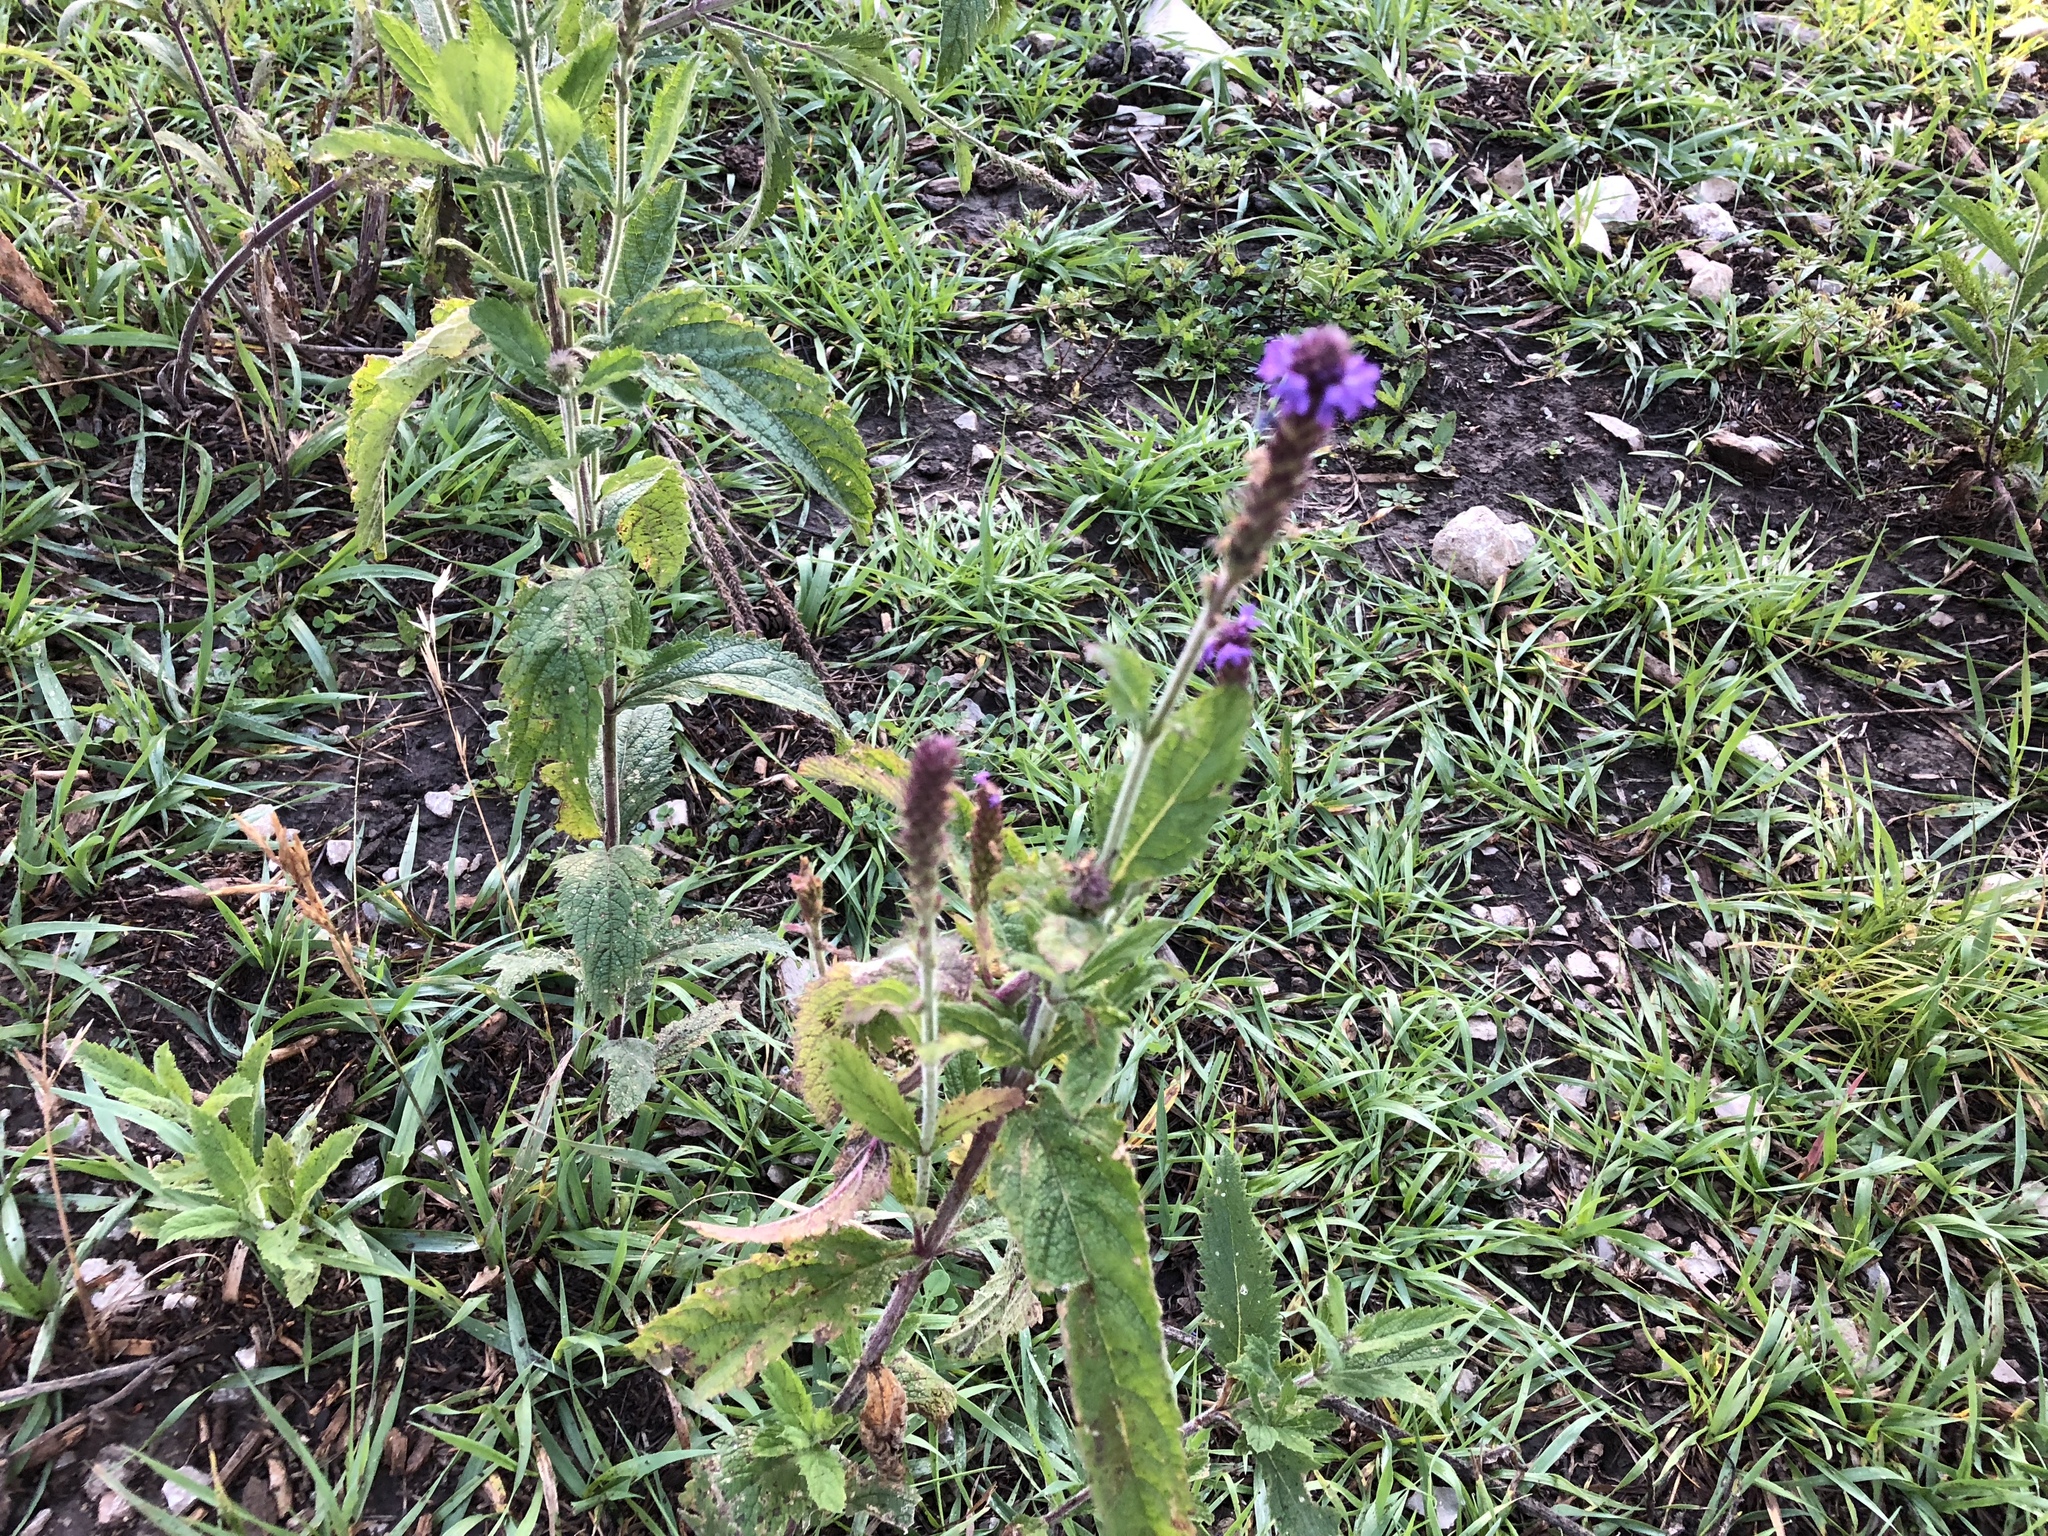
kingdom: Plantae
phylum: Tracheophyta
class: Magnoliopsida
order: Lamiales
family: Verbenaceae
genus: Verbena
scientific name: Verbena macdougalii
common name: New mexico vervain
